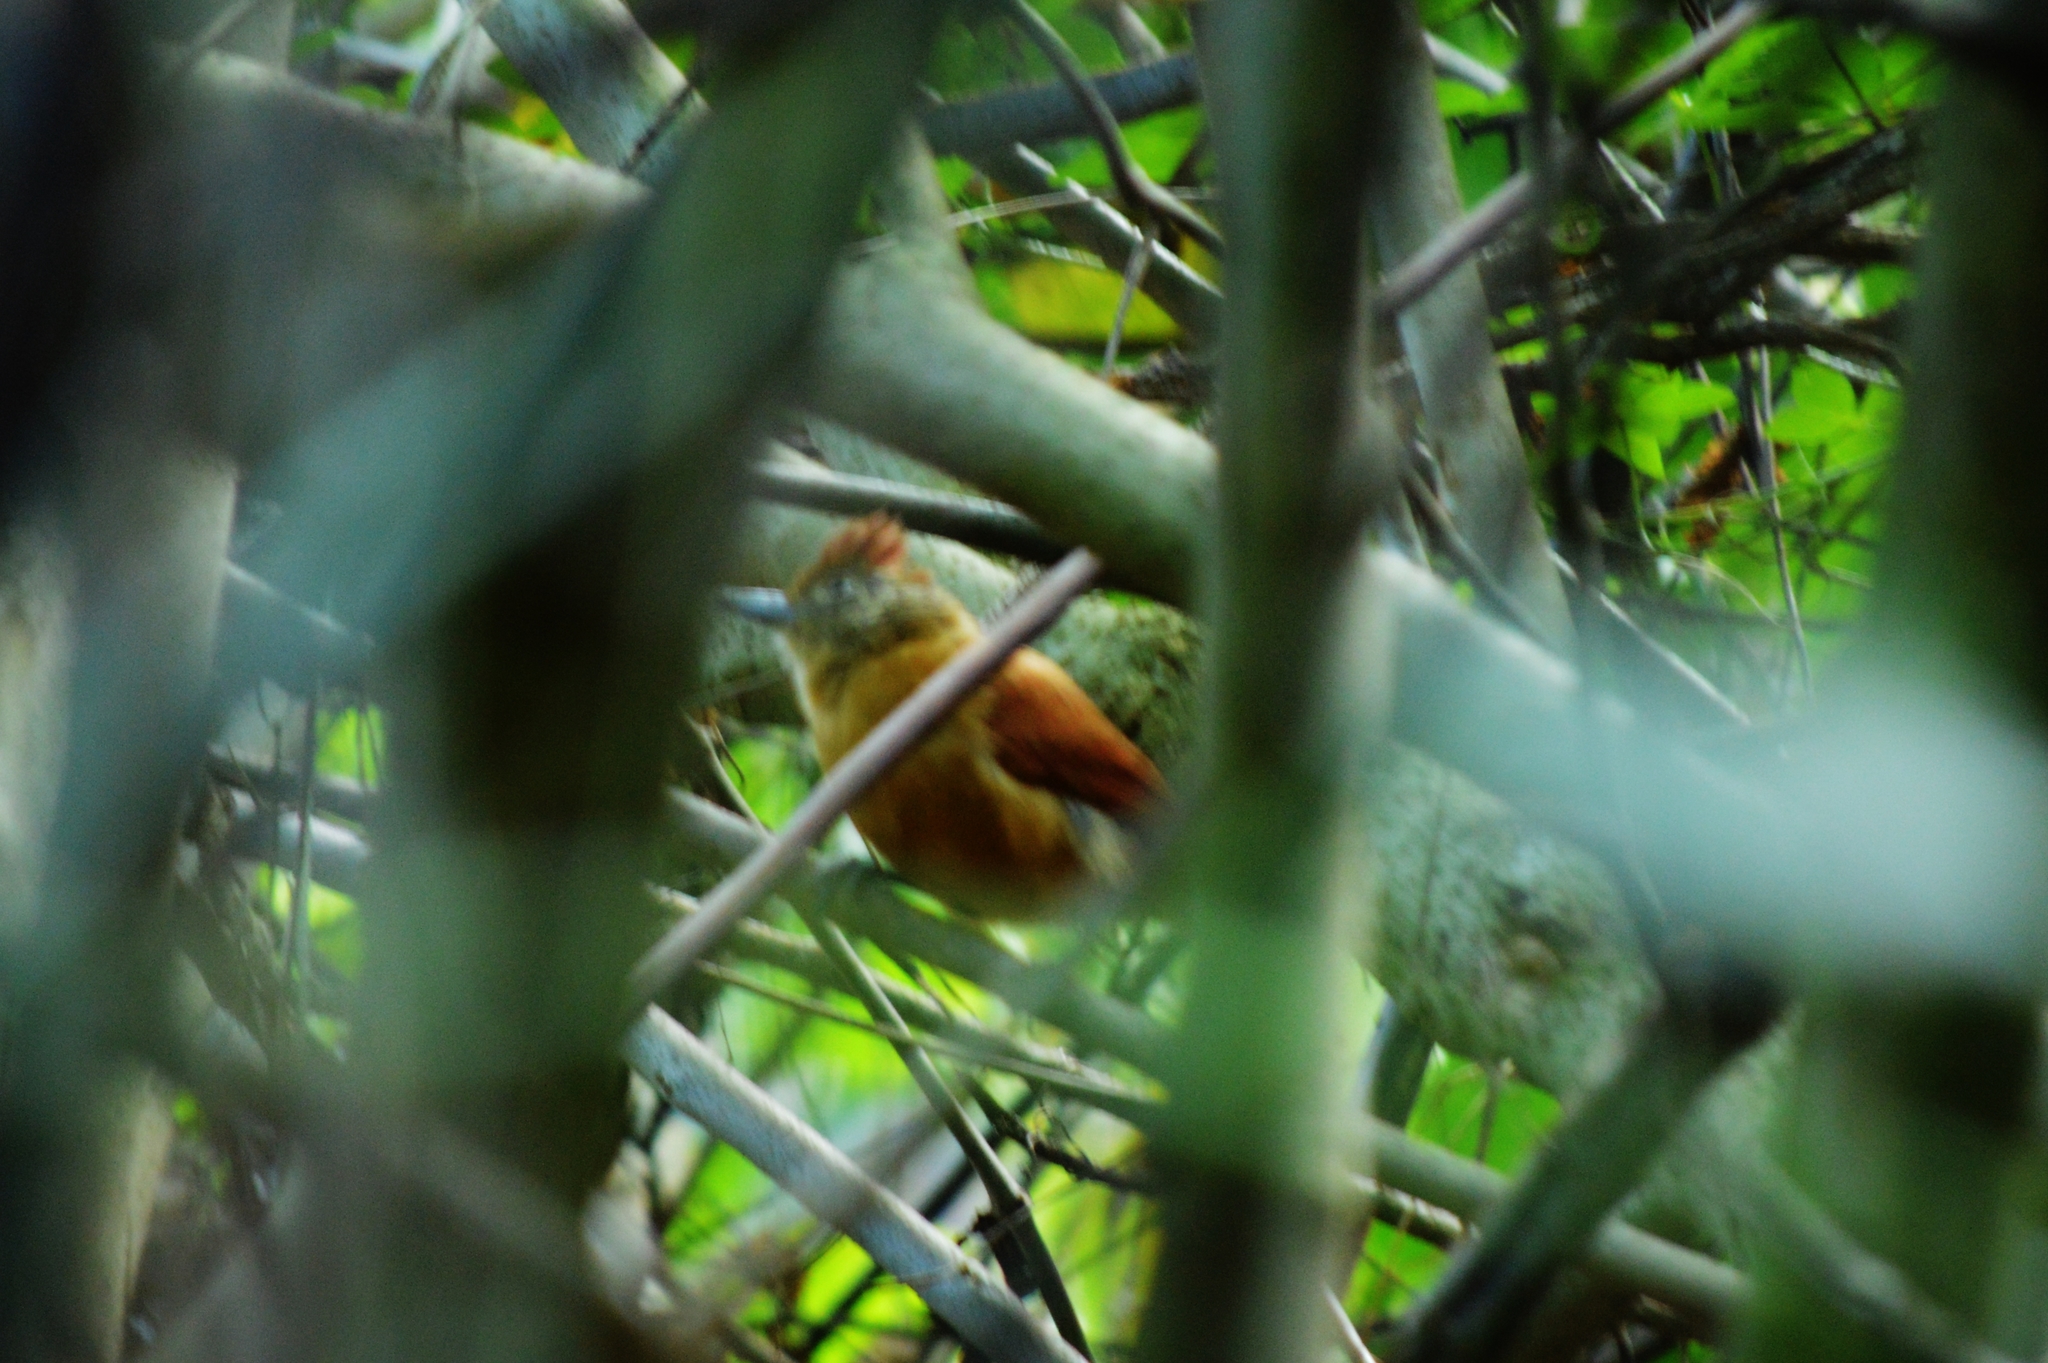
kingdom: Animalia
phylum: Chordata
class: Aves
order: Passeriformes
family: Thamnophilidae
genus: Thamnophilus
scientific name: Thamnophilus doliatus
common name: Barred antshrike
